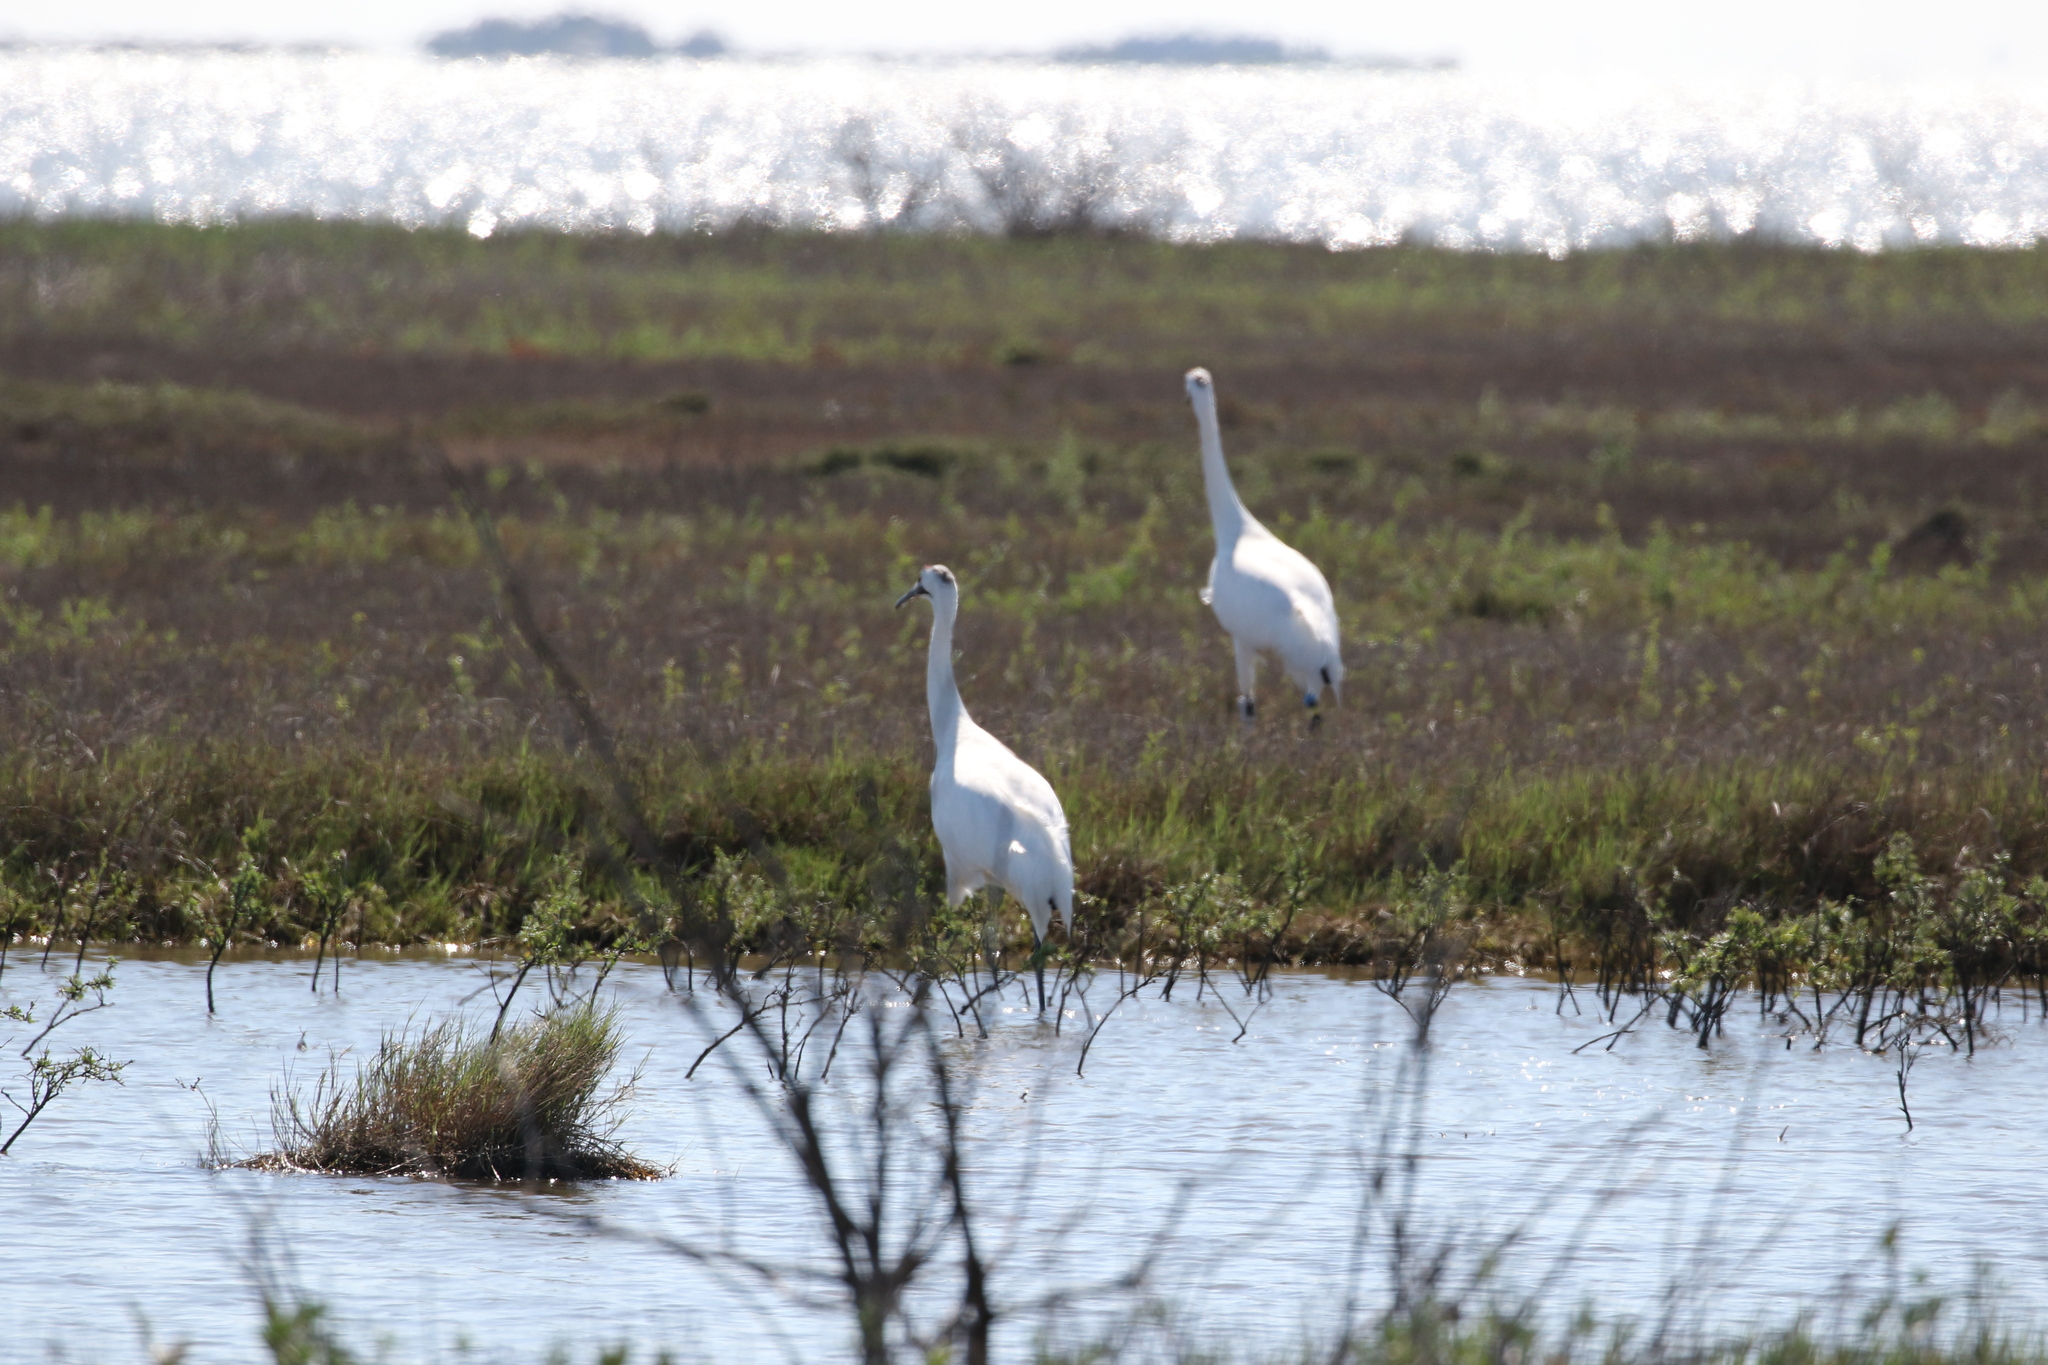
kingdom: Animalia
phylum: Chordata
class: Aves
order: Gruiformes
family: Gruidae
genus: Grus
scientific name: Grus americana
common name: Whooping crane
